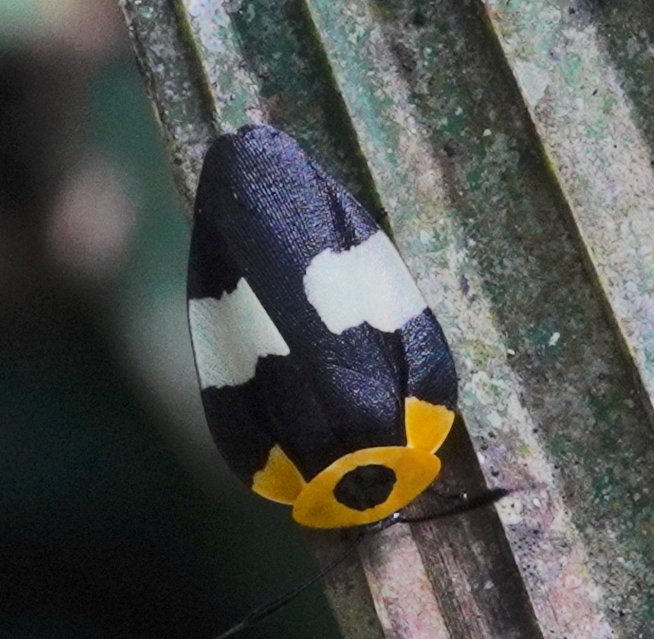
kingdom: Animalia
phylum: Arthropoda
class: Insecta
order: Blattodea
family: Ectobiidae
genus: Eushelfordia
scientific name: Eushelfordia pica
